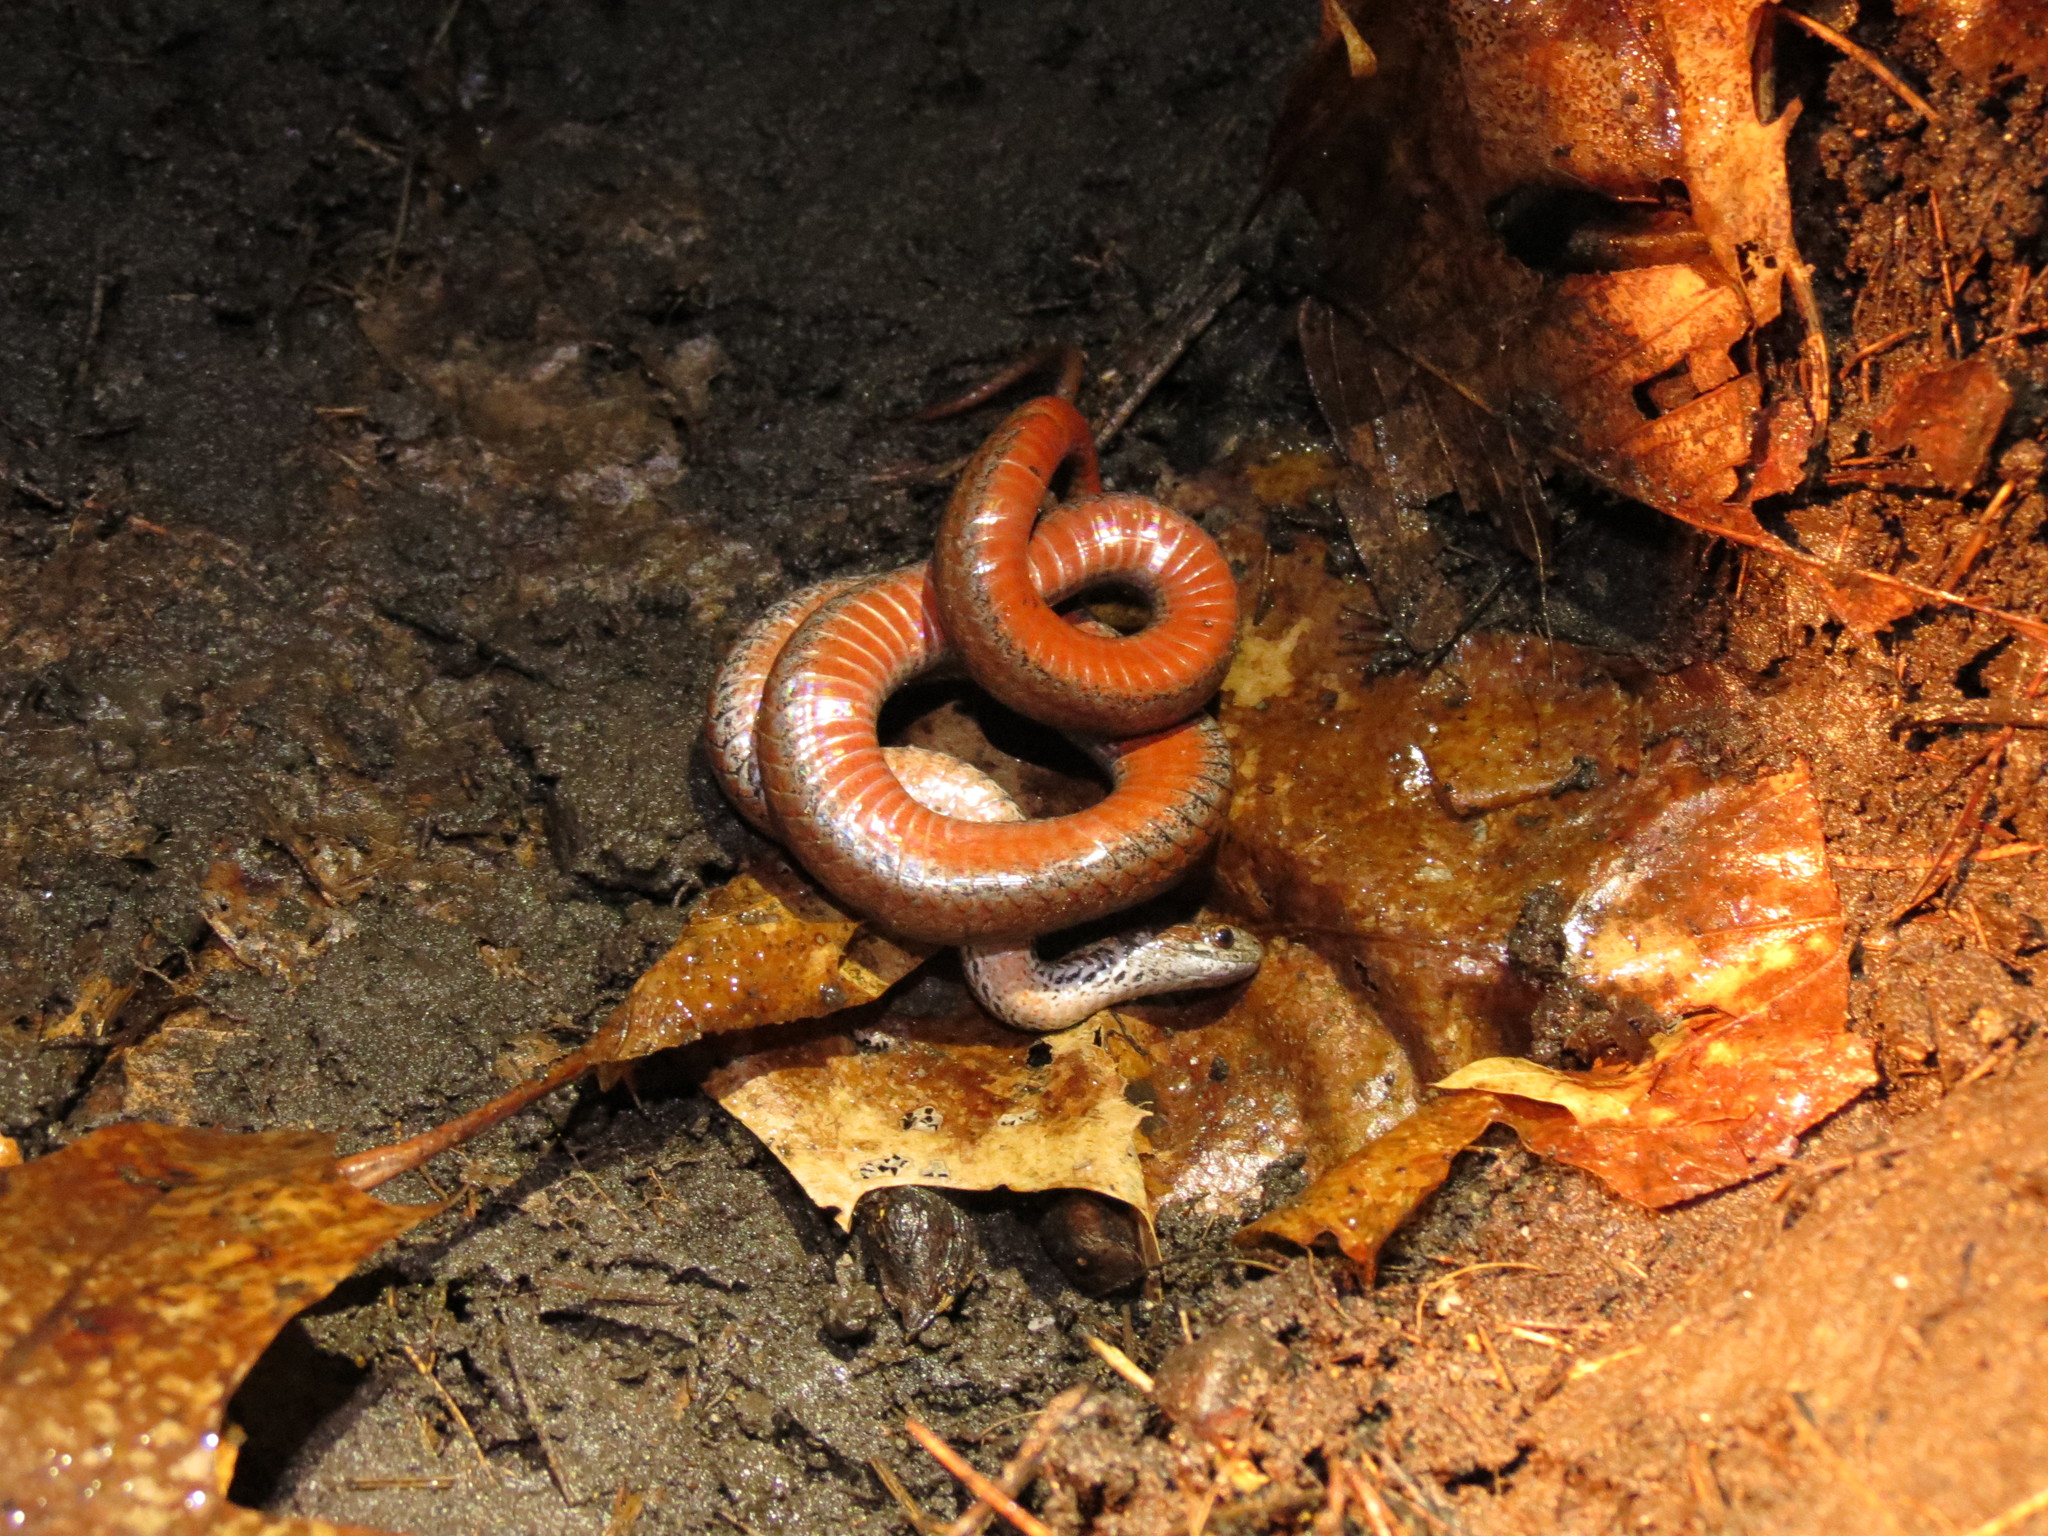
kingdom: Animalia
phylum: Chordata
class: Squamata
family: Colubridae
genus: Storeria
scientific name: Storeria occipitomaculata
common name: Redbelly snake
